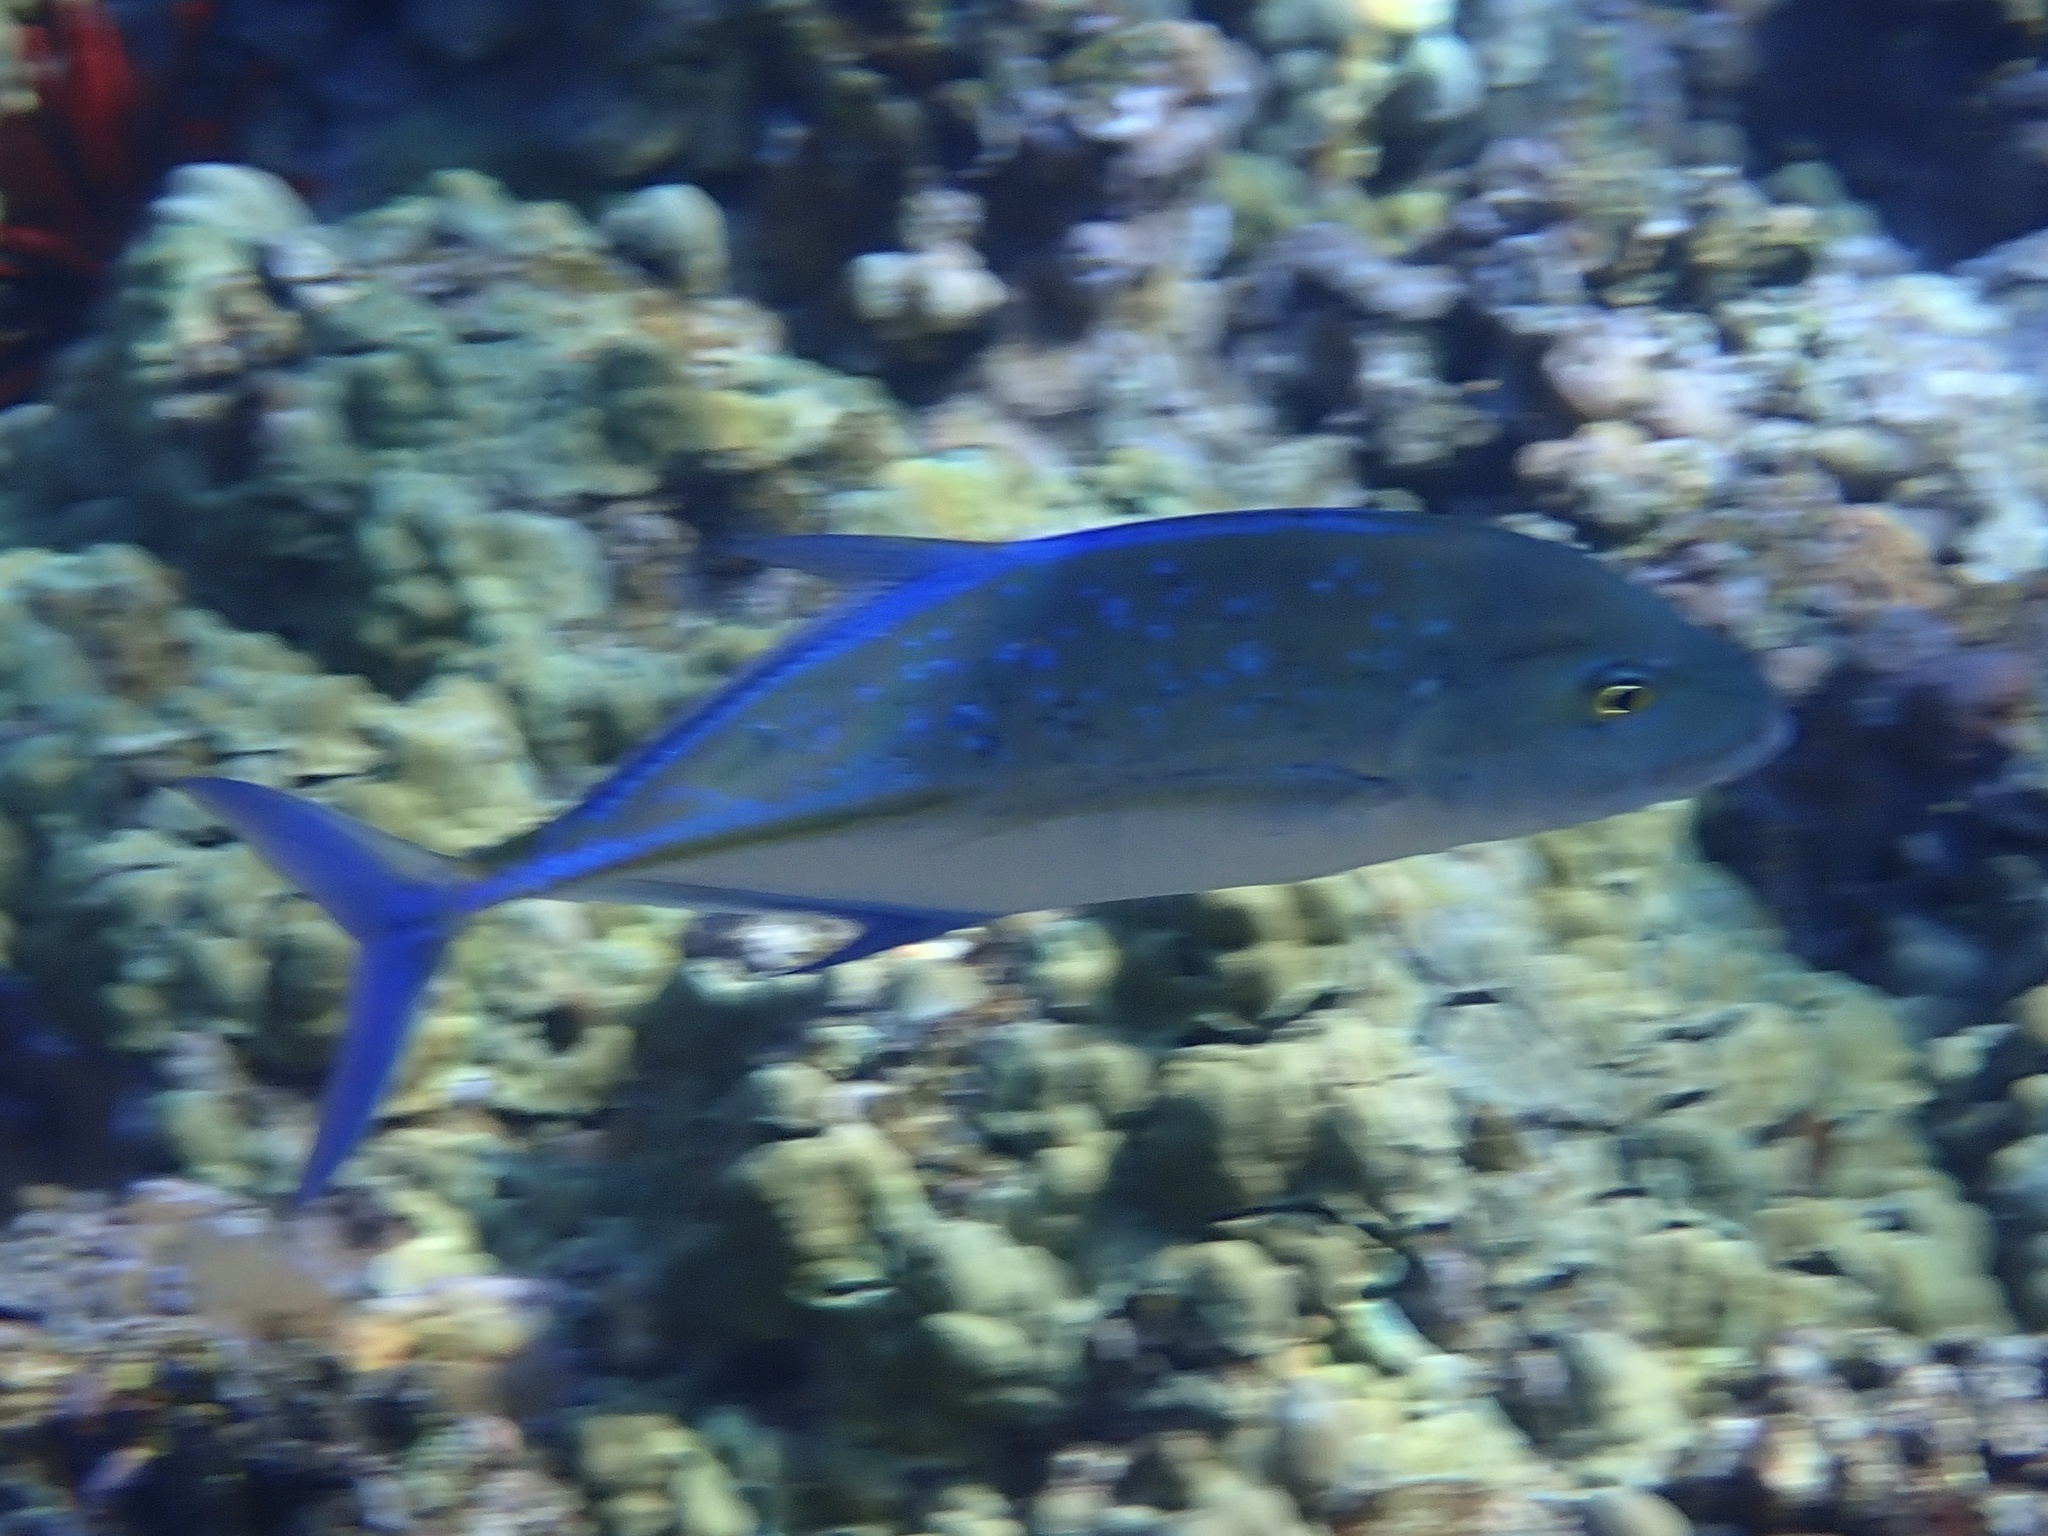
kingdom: Animalia
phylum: Chordata
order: Perciformes
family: Carangidae
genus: Caranx
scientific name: Caranx melampygus
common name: Bluefin trevally
